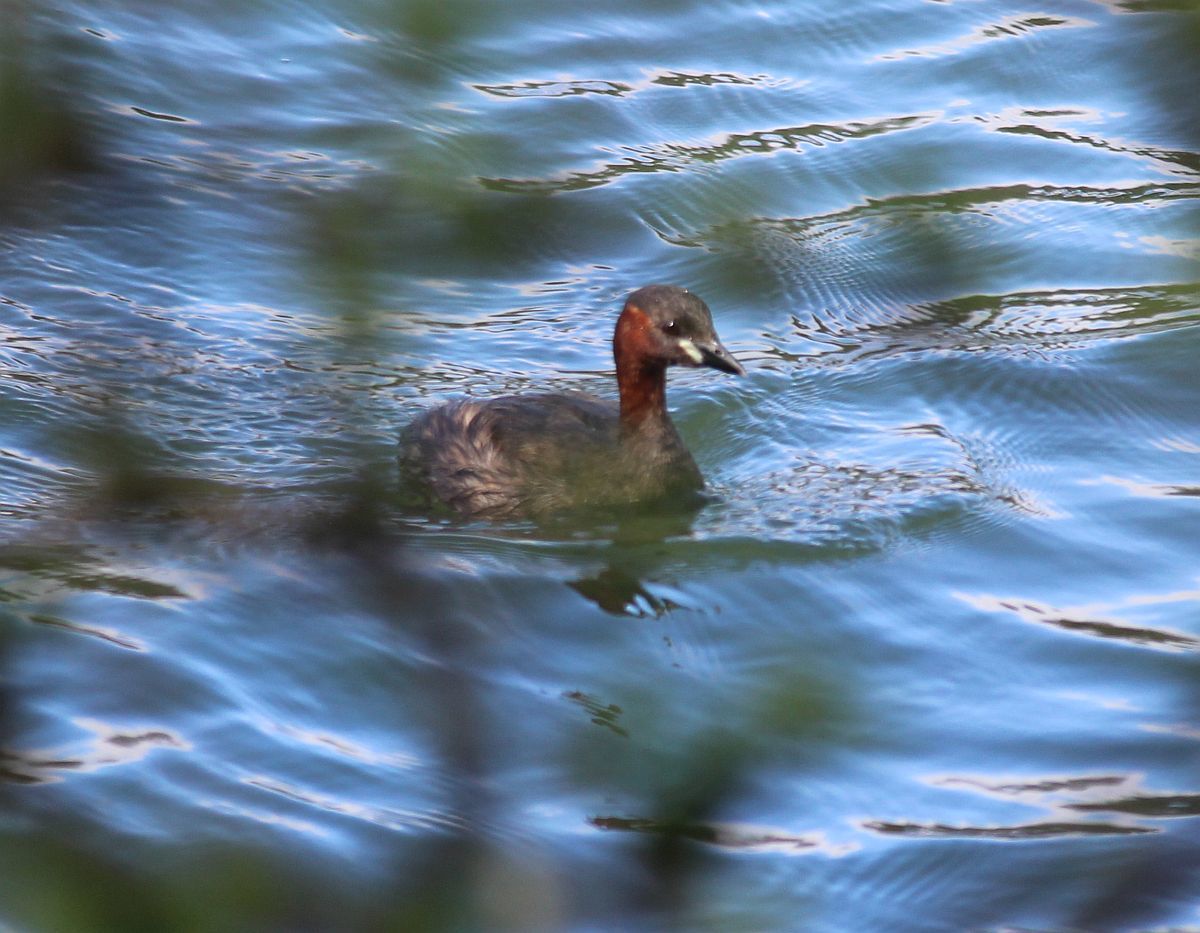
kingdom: Animalia
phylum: Chordata
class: Aves
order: Podicipediformes
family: Podicipedidae
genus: Tachybaptus
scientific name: Tachybaptus ruficollis
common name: Little grebe
